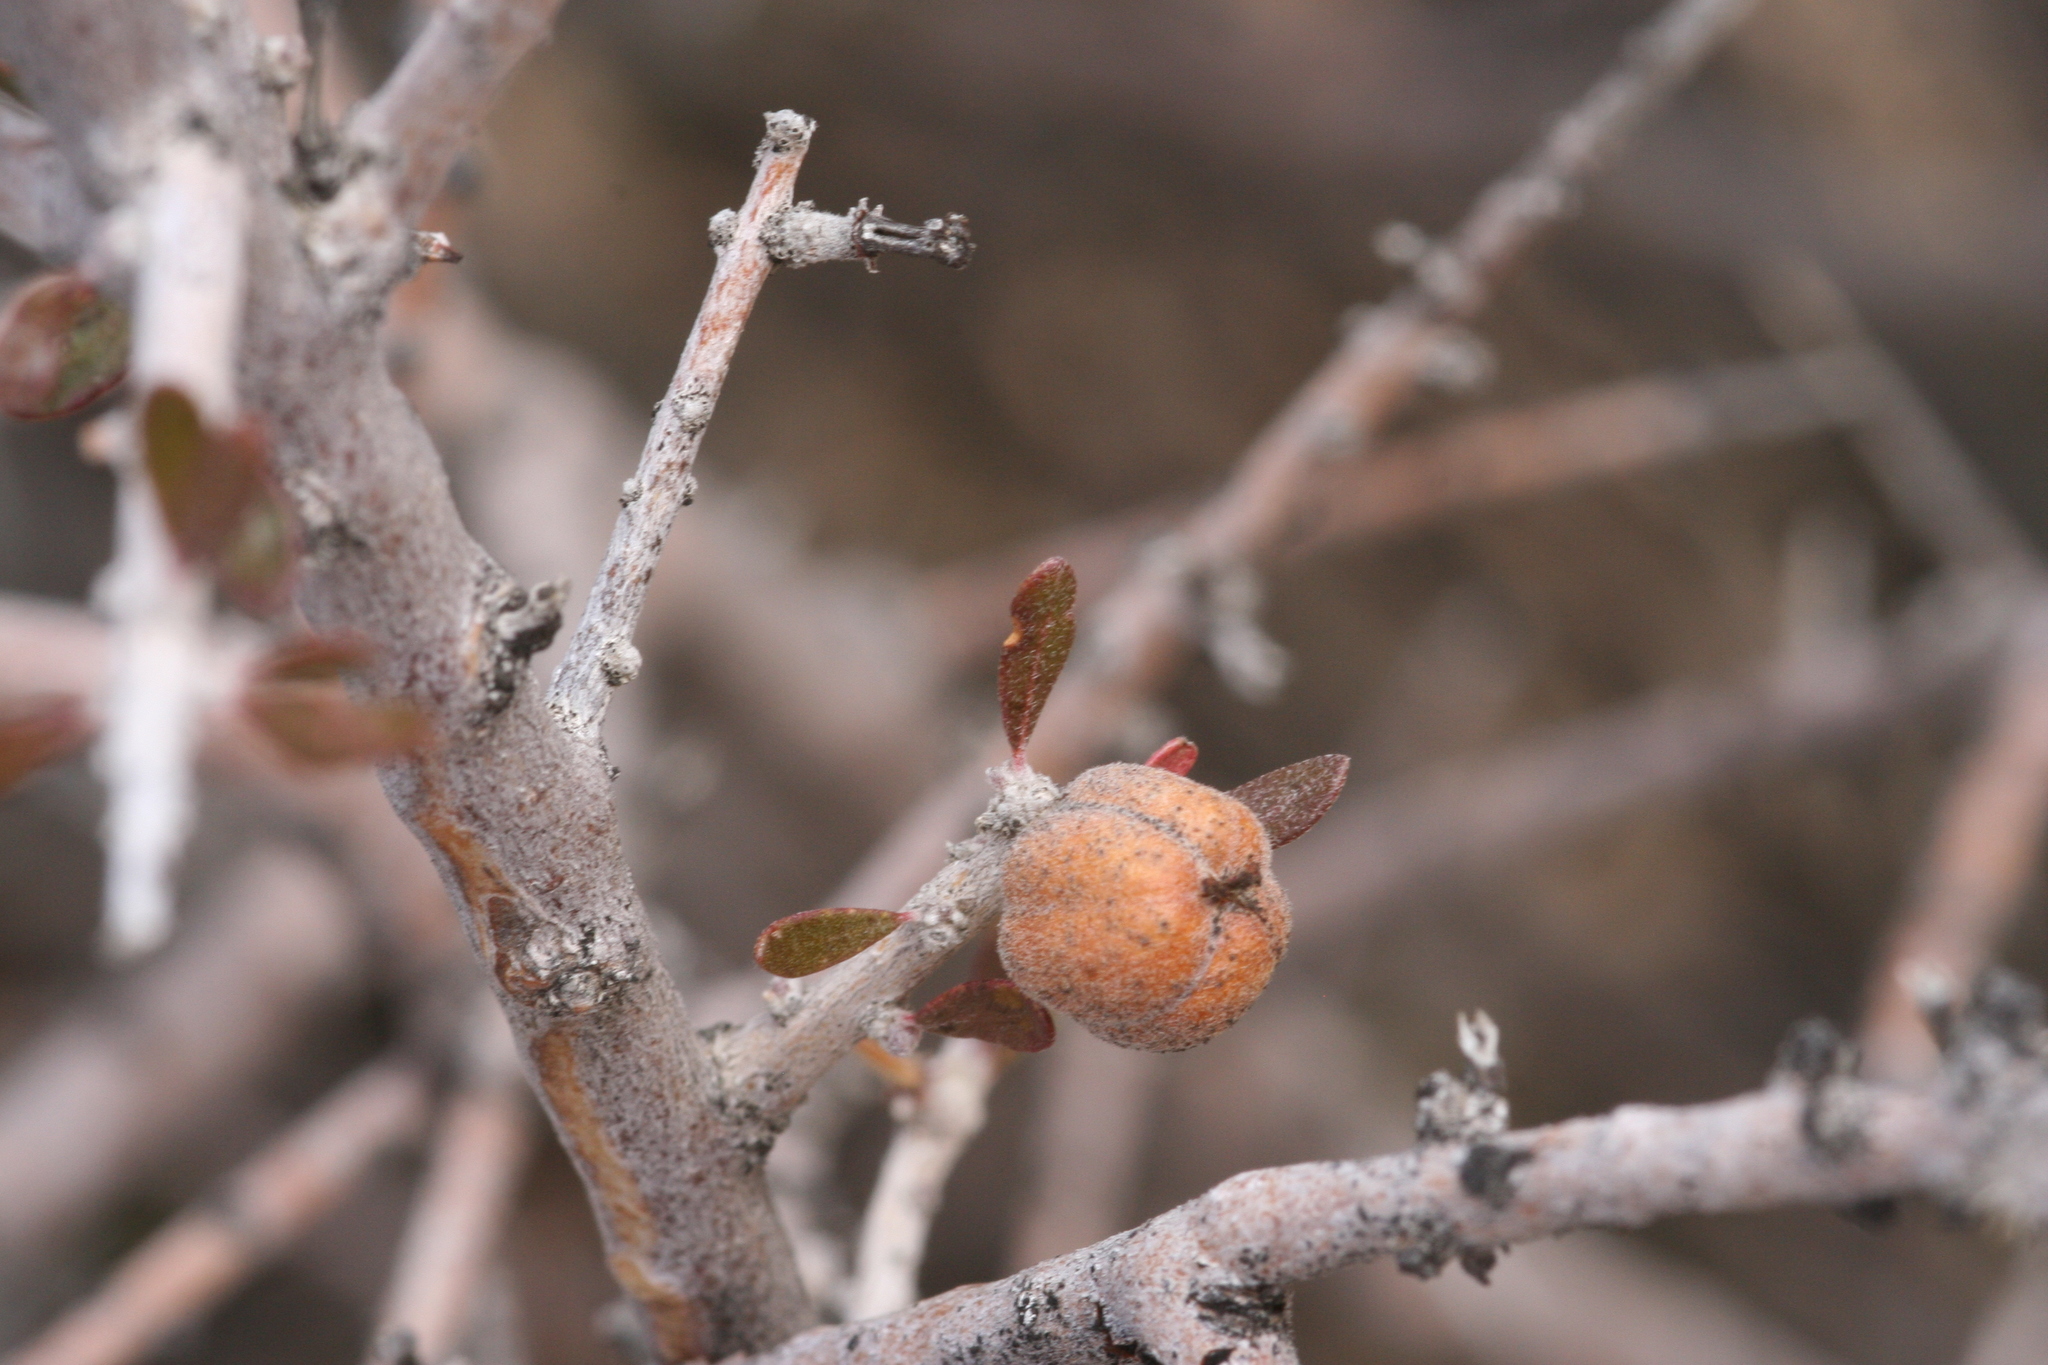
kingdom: Plantae
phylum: Tracheophyta
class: Magnoliopsida
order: Malpighiales
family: Picrodendraceae
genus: Tetracoccus
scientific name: Tetracoccus hallii
